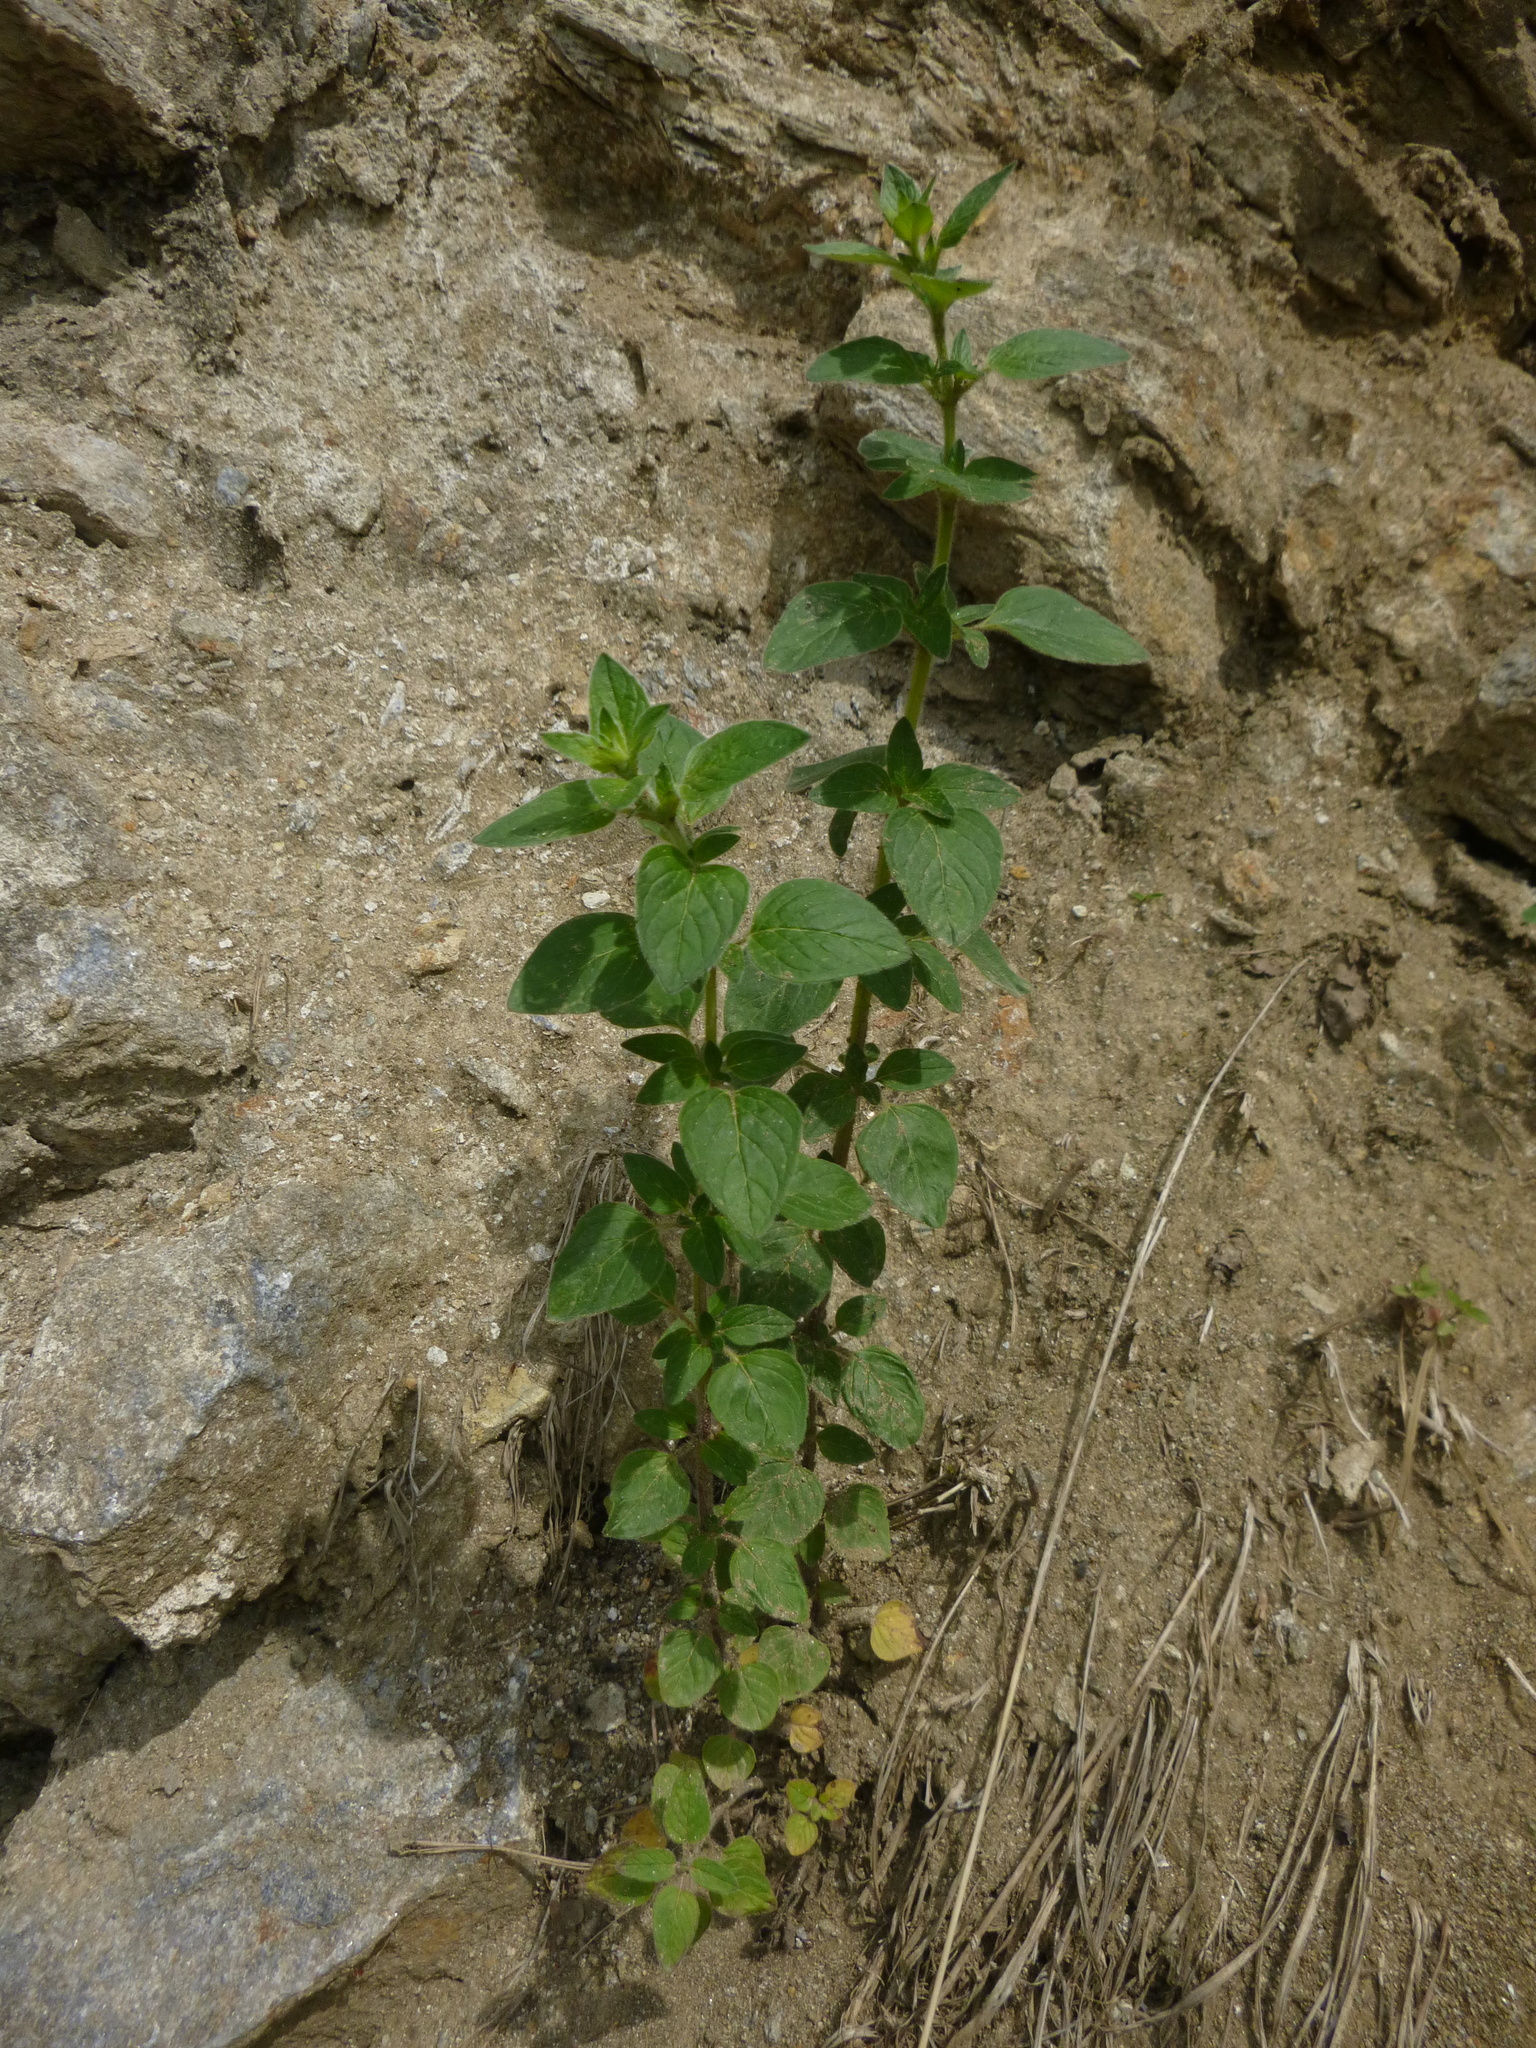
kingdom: Plantae
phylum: Tracheophyta
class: Magnoliopsida
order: Lamiales
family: Lamiaceae
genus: Origanum
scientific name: Origanum vulgare
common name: Wild marjoram
